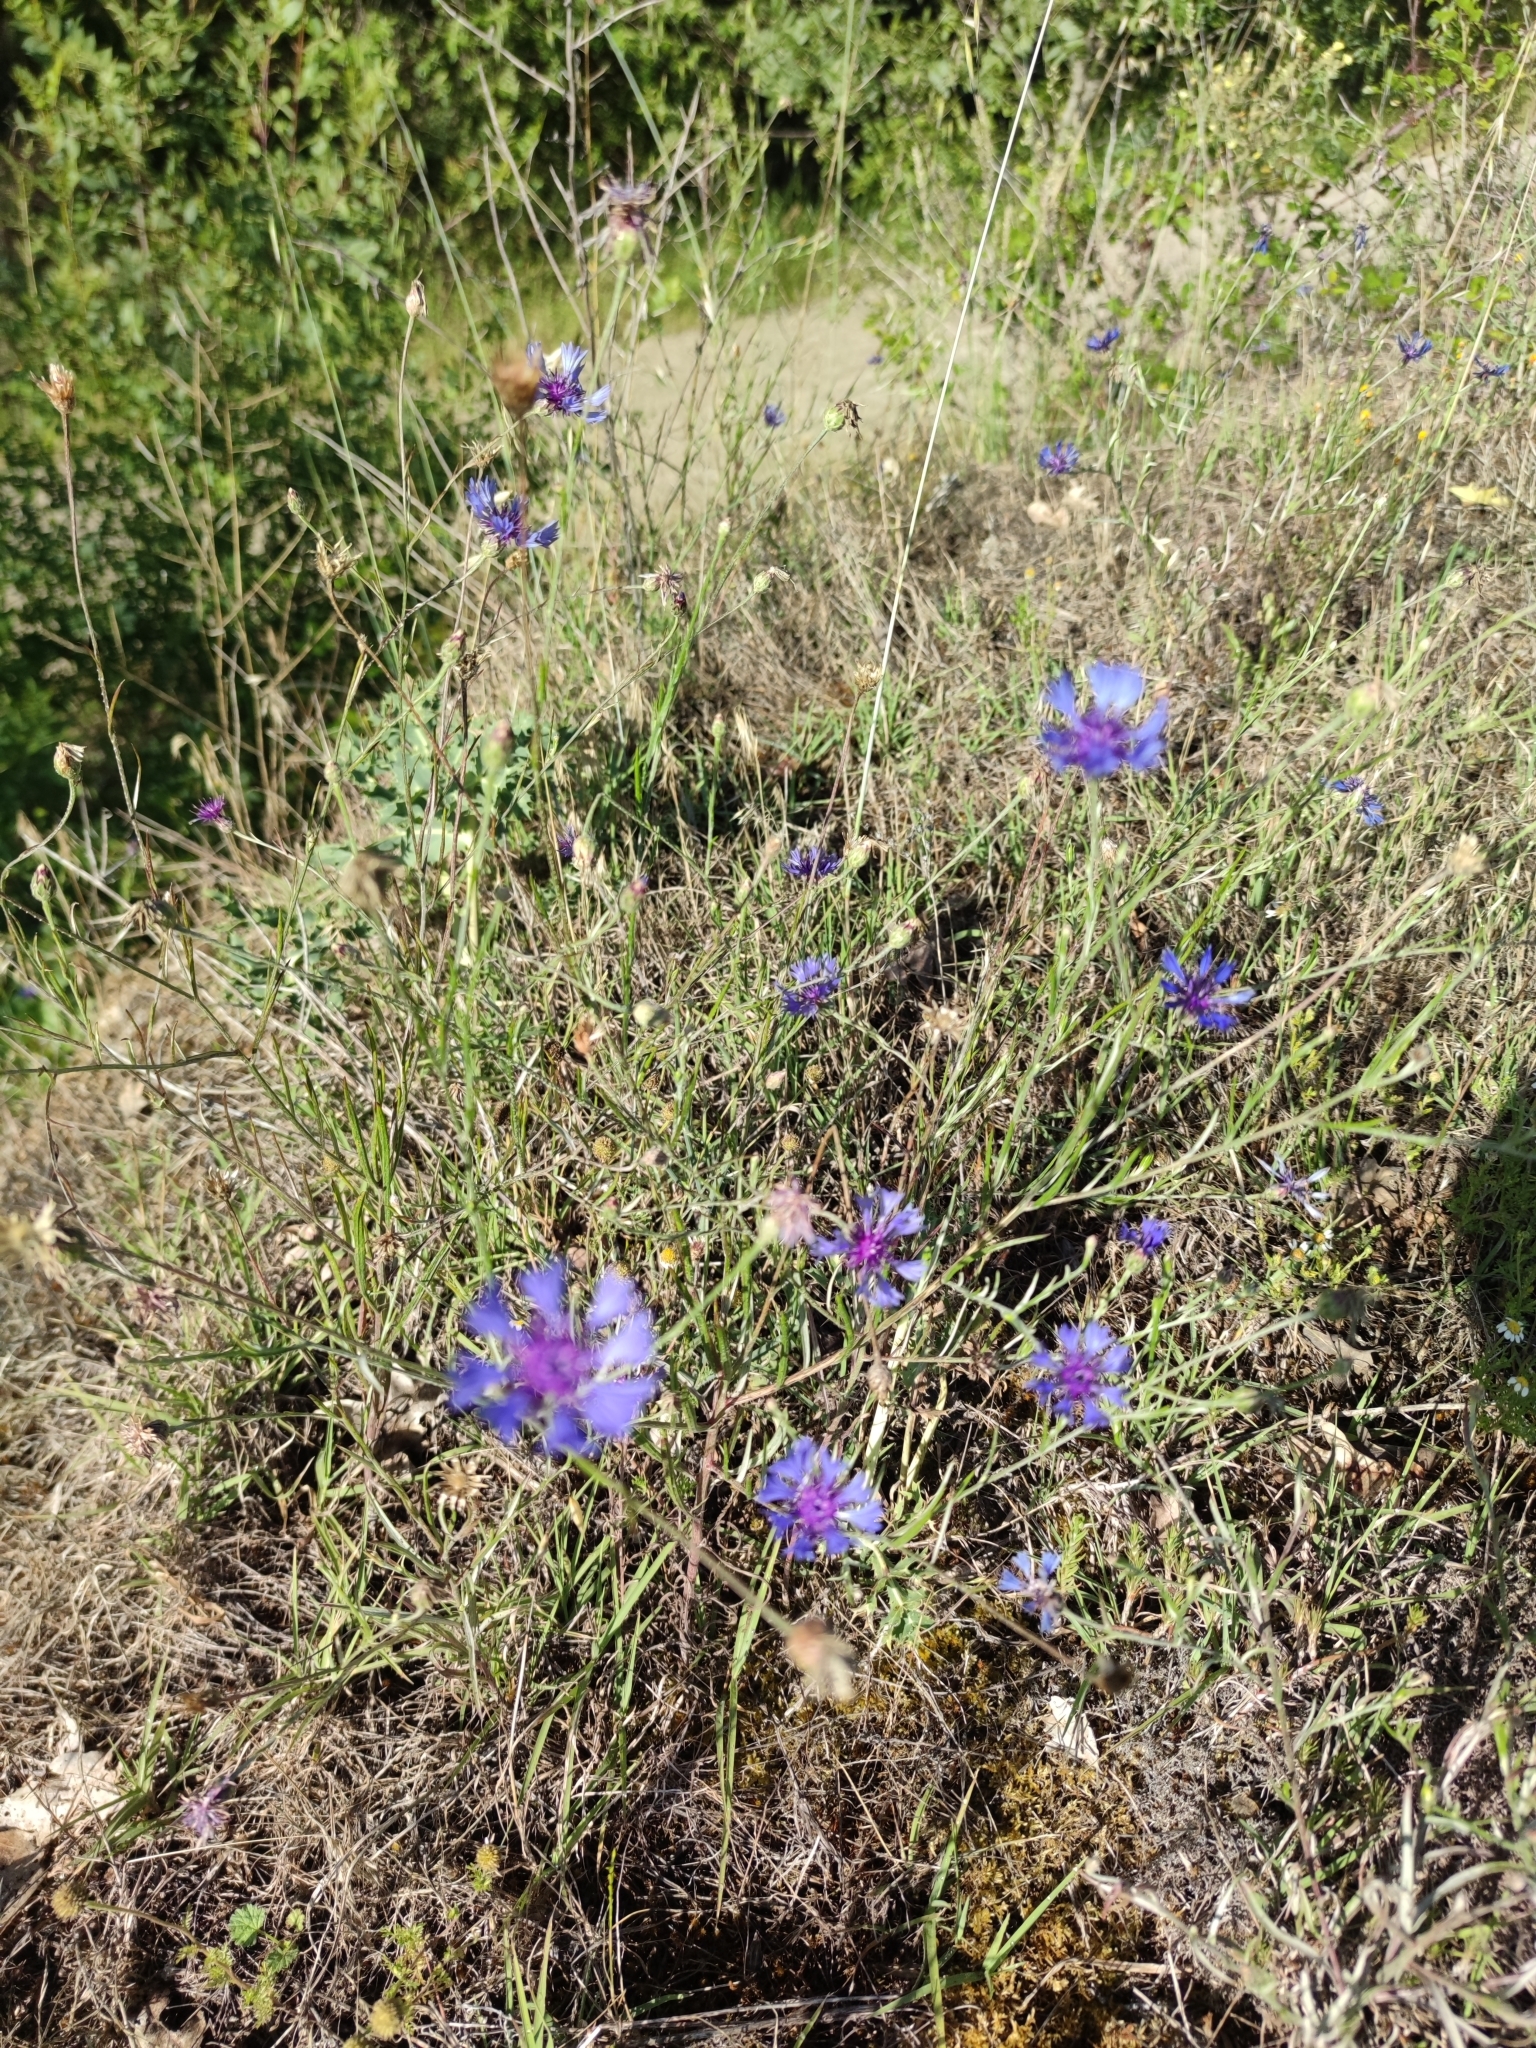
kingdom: Plantae
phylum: Tracheophyta
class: Magnoliopsida
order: Asterales
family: Asteraceae
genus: Centaurea
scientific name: Centaurea cyanus
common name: Cornflower
